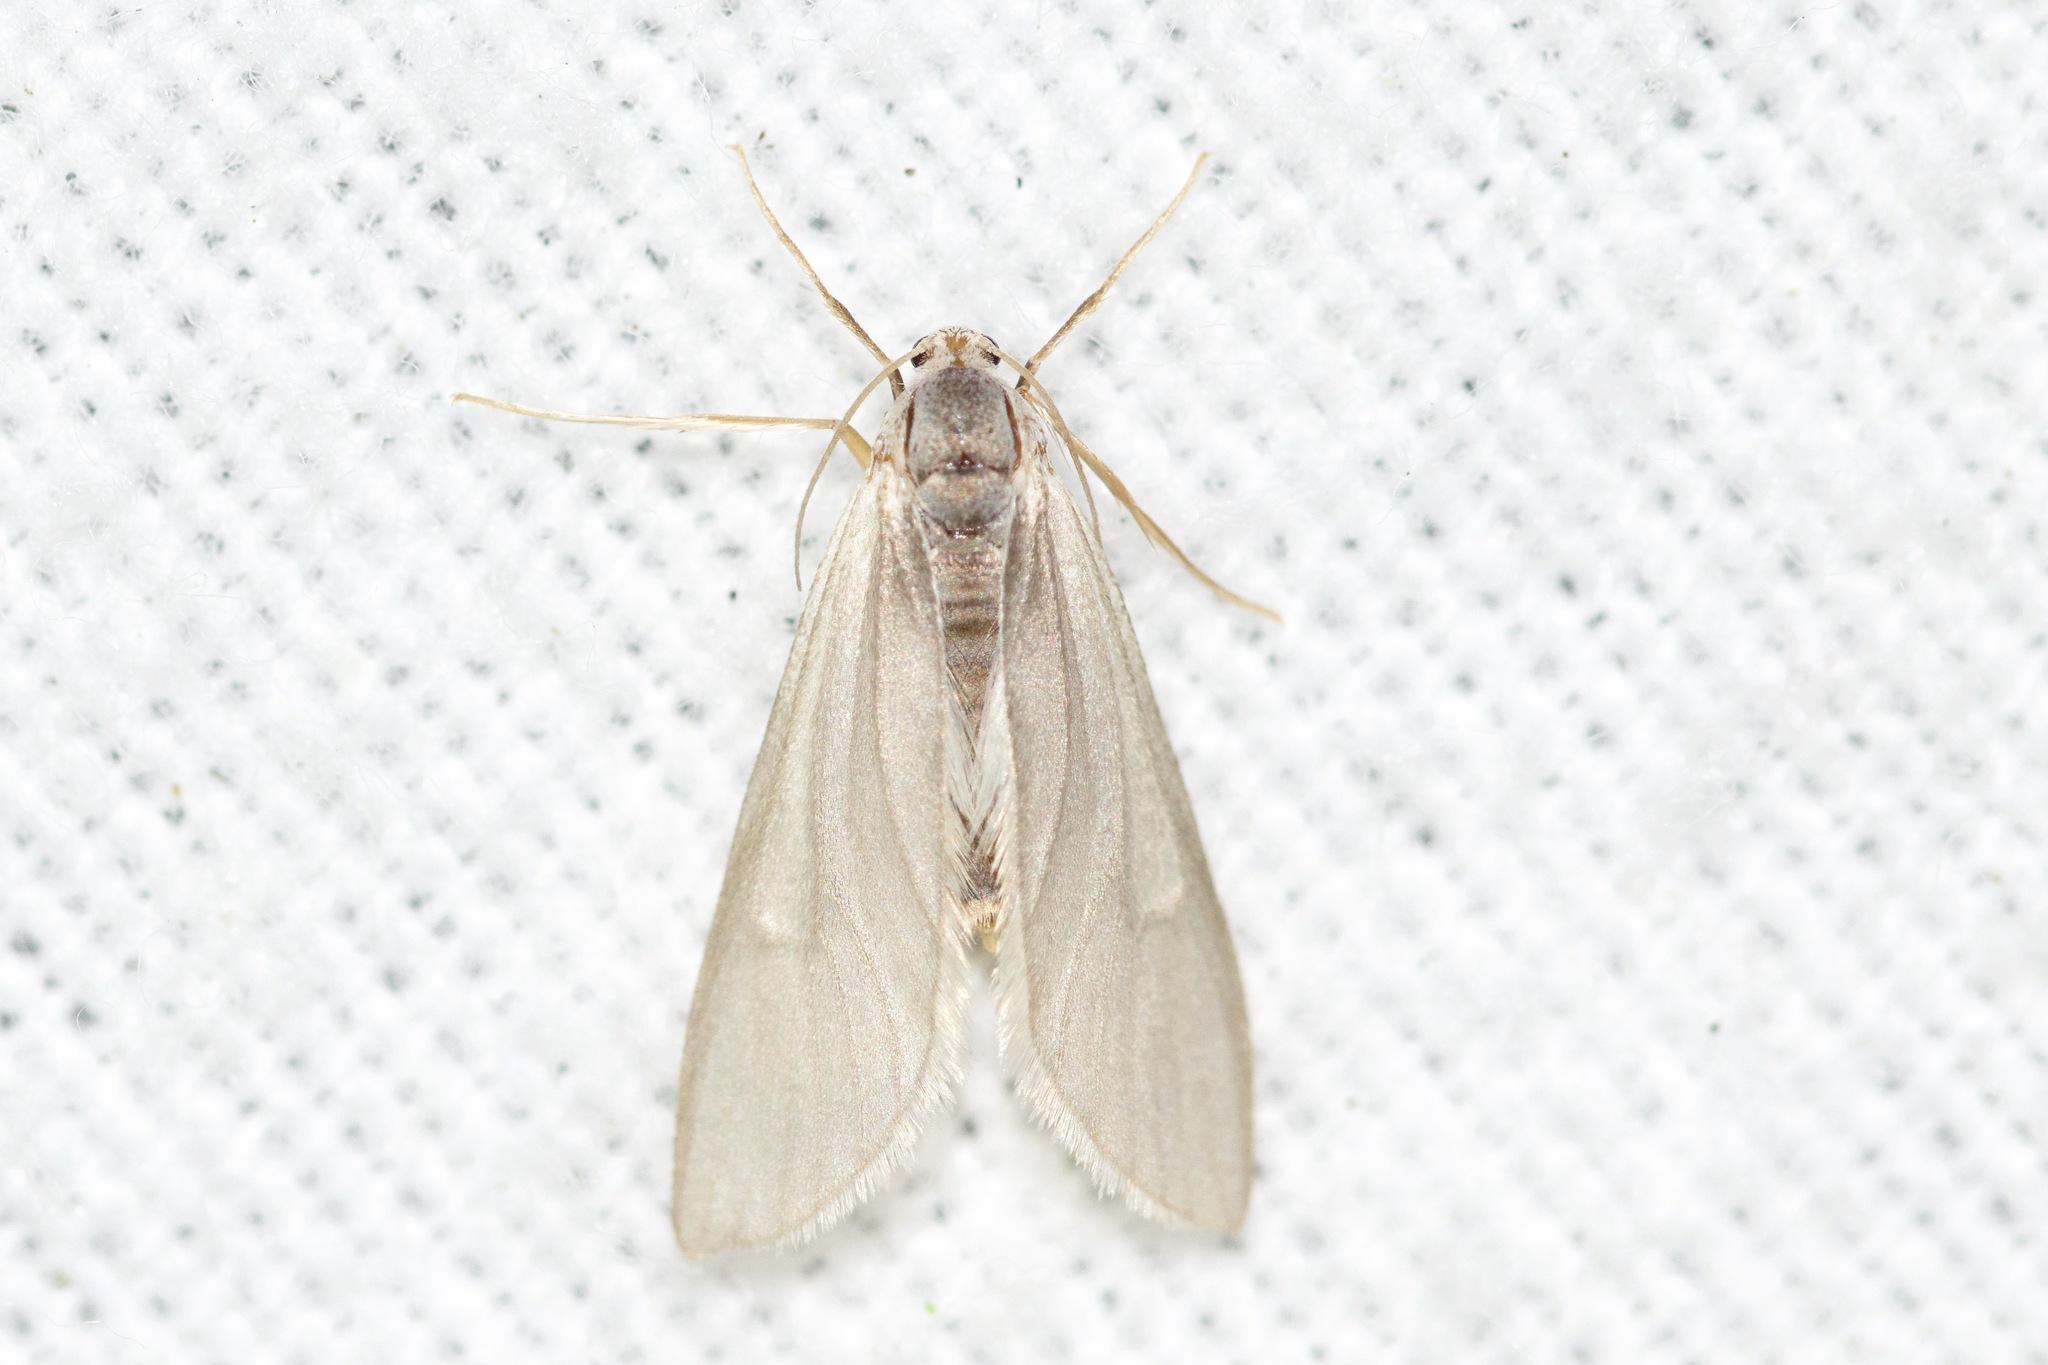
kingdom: Animalia
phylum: Arthropoda
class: Insecta
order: Lepidoptera
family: Crambidae
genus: Acentria
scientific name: Acentria ephemerella
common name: European water moth
